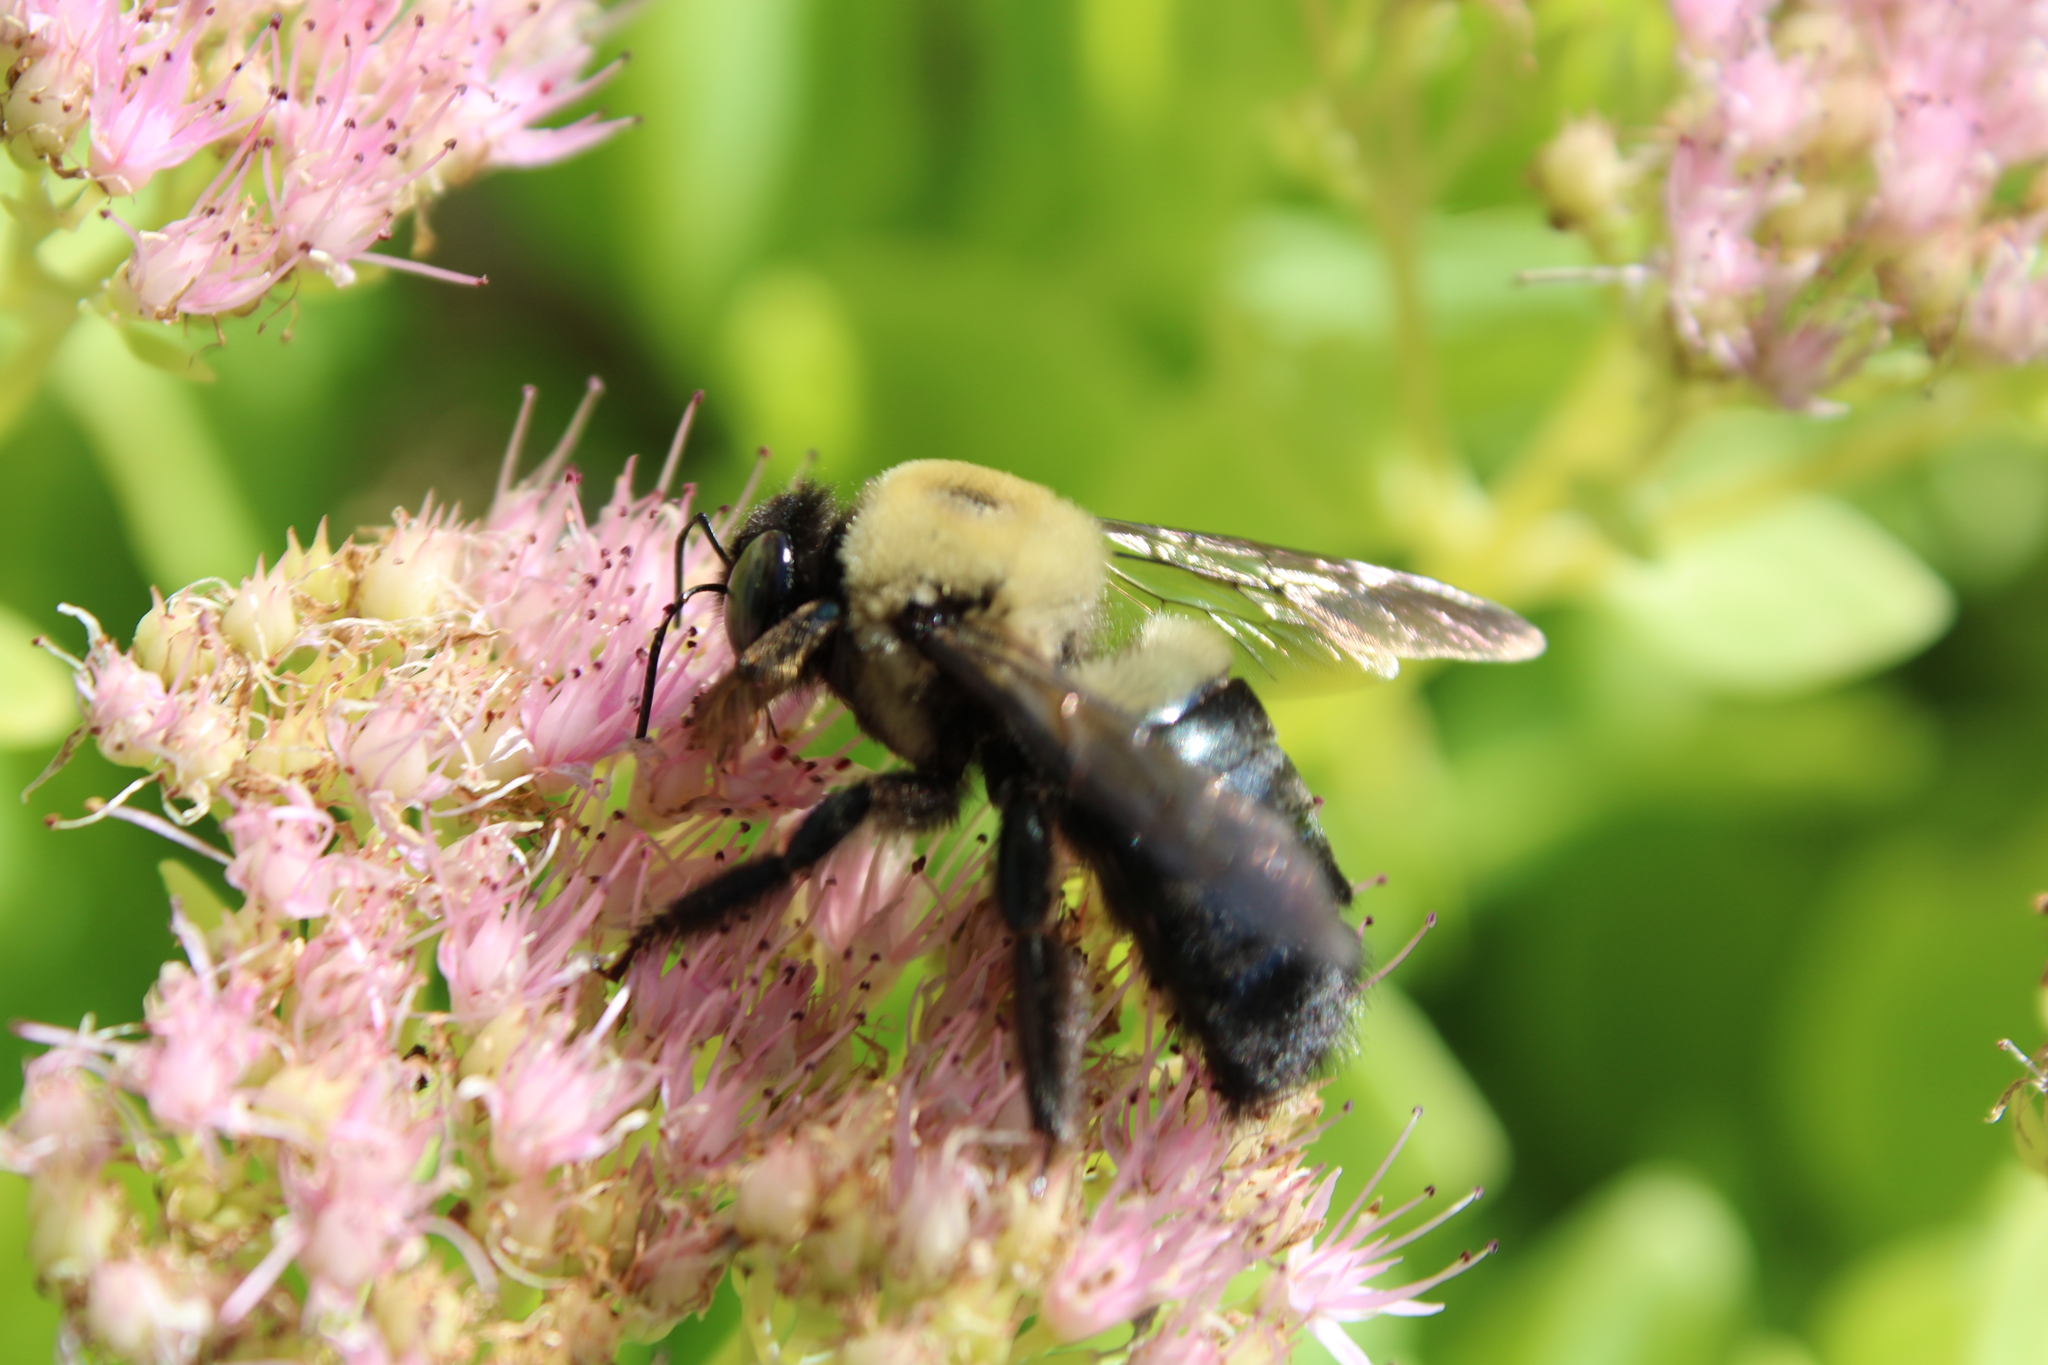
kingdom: Animalia
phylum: Arthropoda
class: Insecta
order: Hymenoptera
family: Apidae
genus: Xylocopa
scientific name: Xylocopa virginica
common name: Carpenter bee
